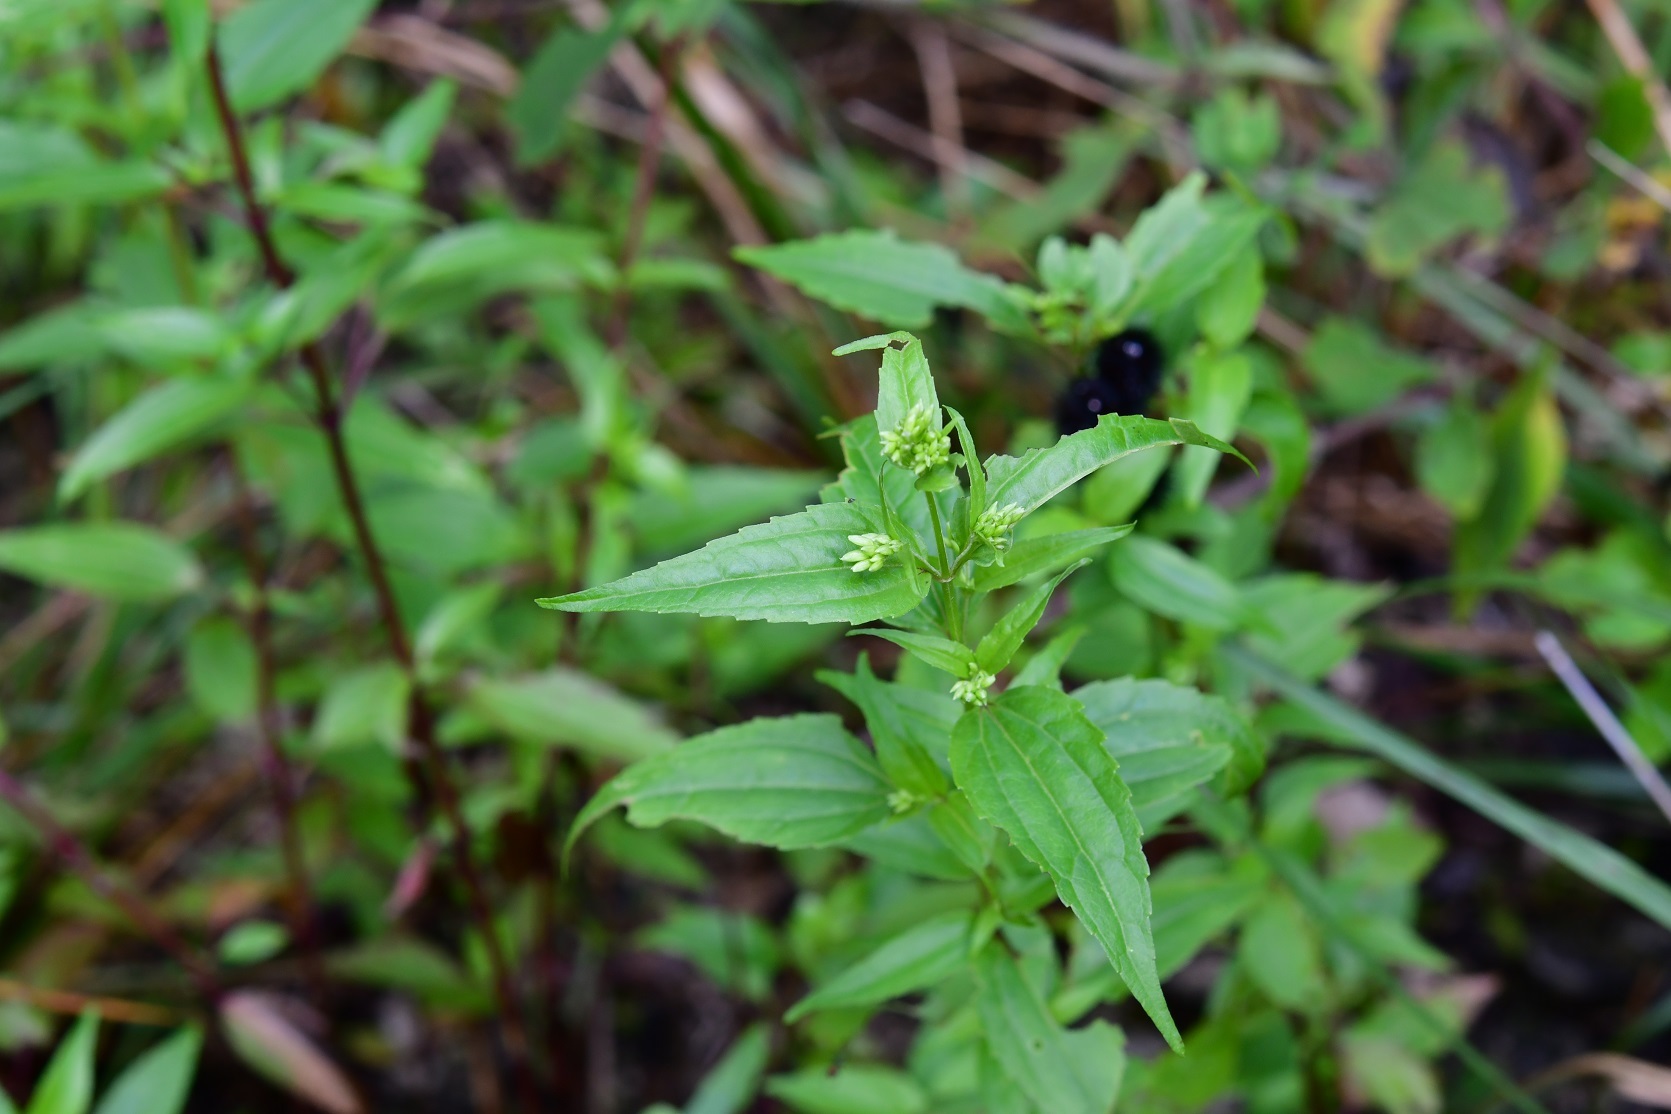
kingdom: Plantae
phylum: Tracheophyta
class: Magnoliopsida
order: Asterales
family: Asteraceae
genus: Piqueria
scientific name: Piqueria trinervia
